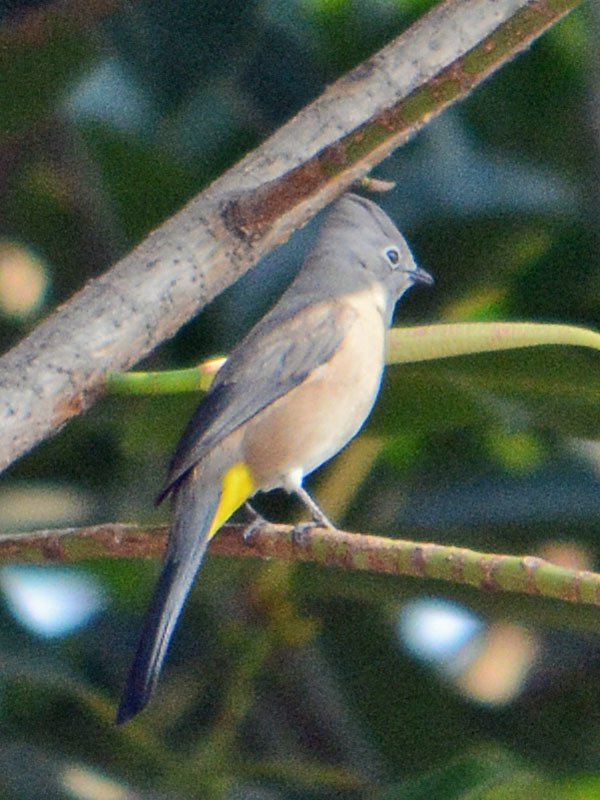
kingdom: Animalia
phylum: Chordata
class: Aves
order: Passeriformes
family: Ptilogonatidae
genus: Ptilogonys
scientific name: Ptilogonys cinereus
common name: Gray silky-flycatcher
